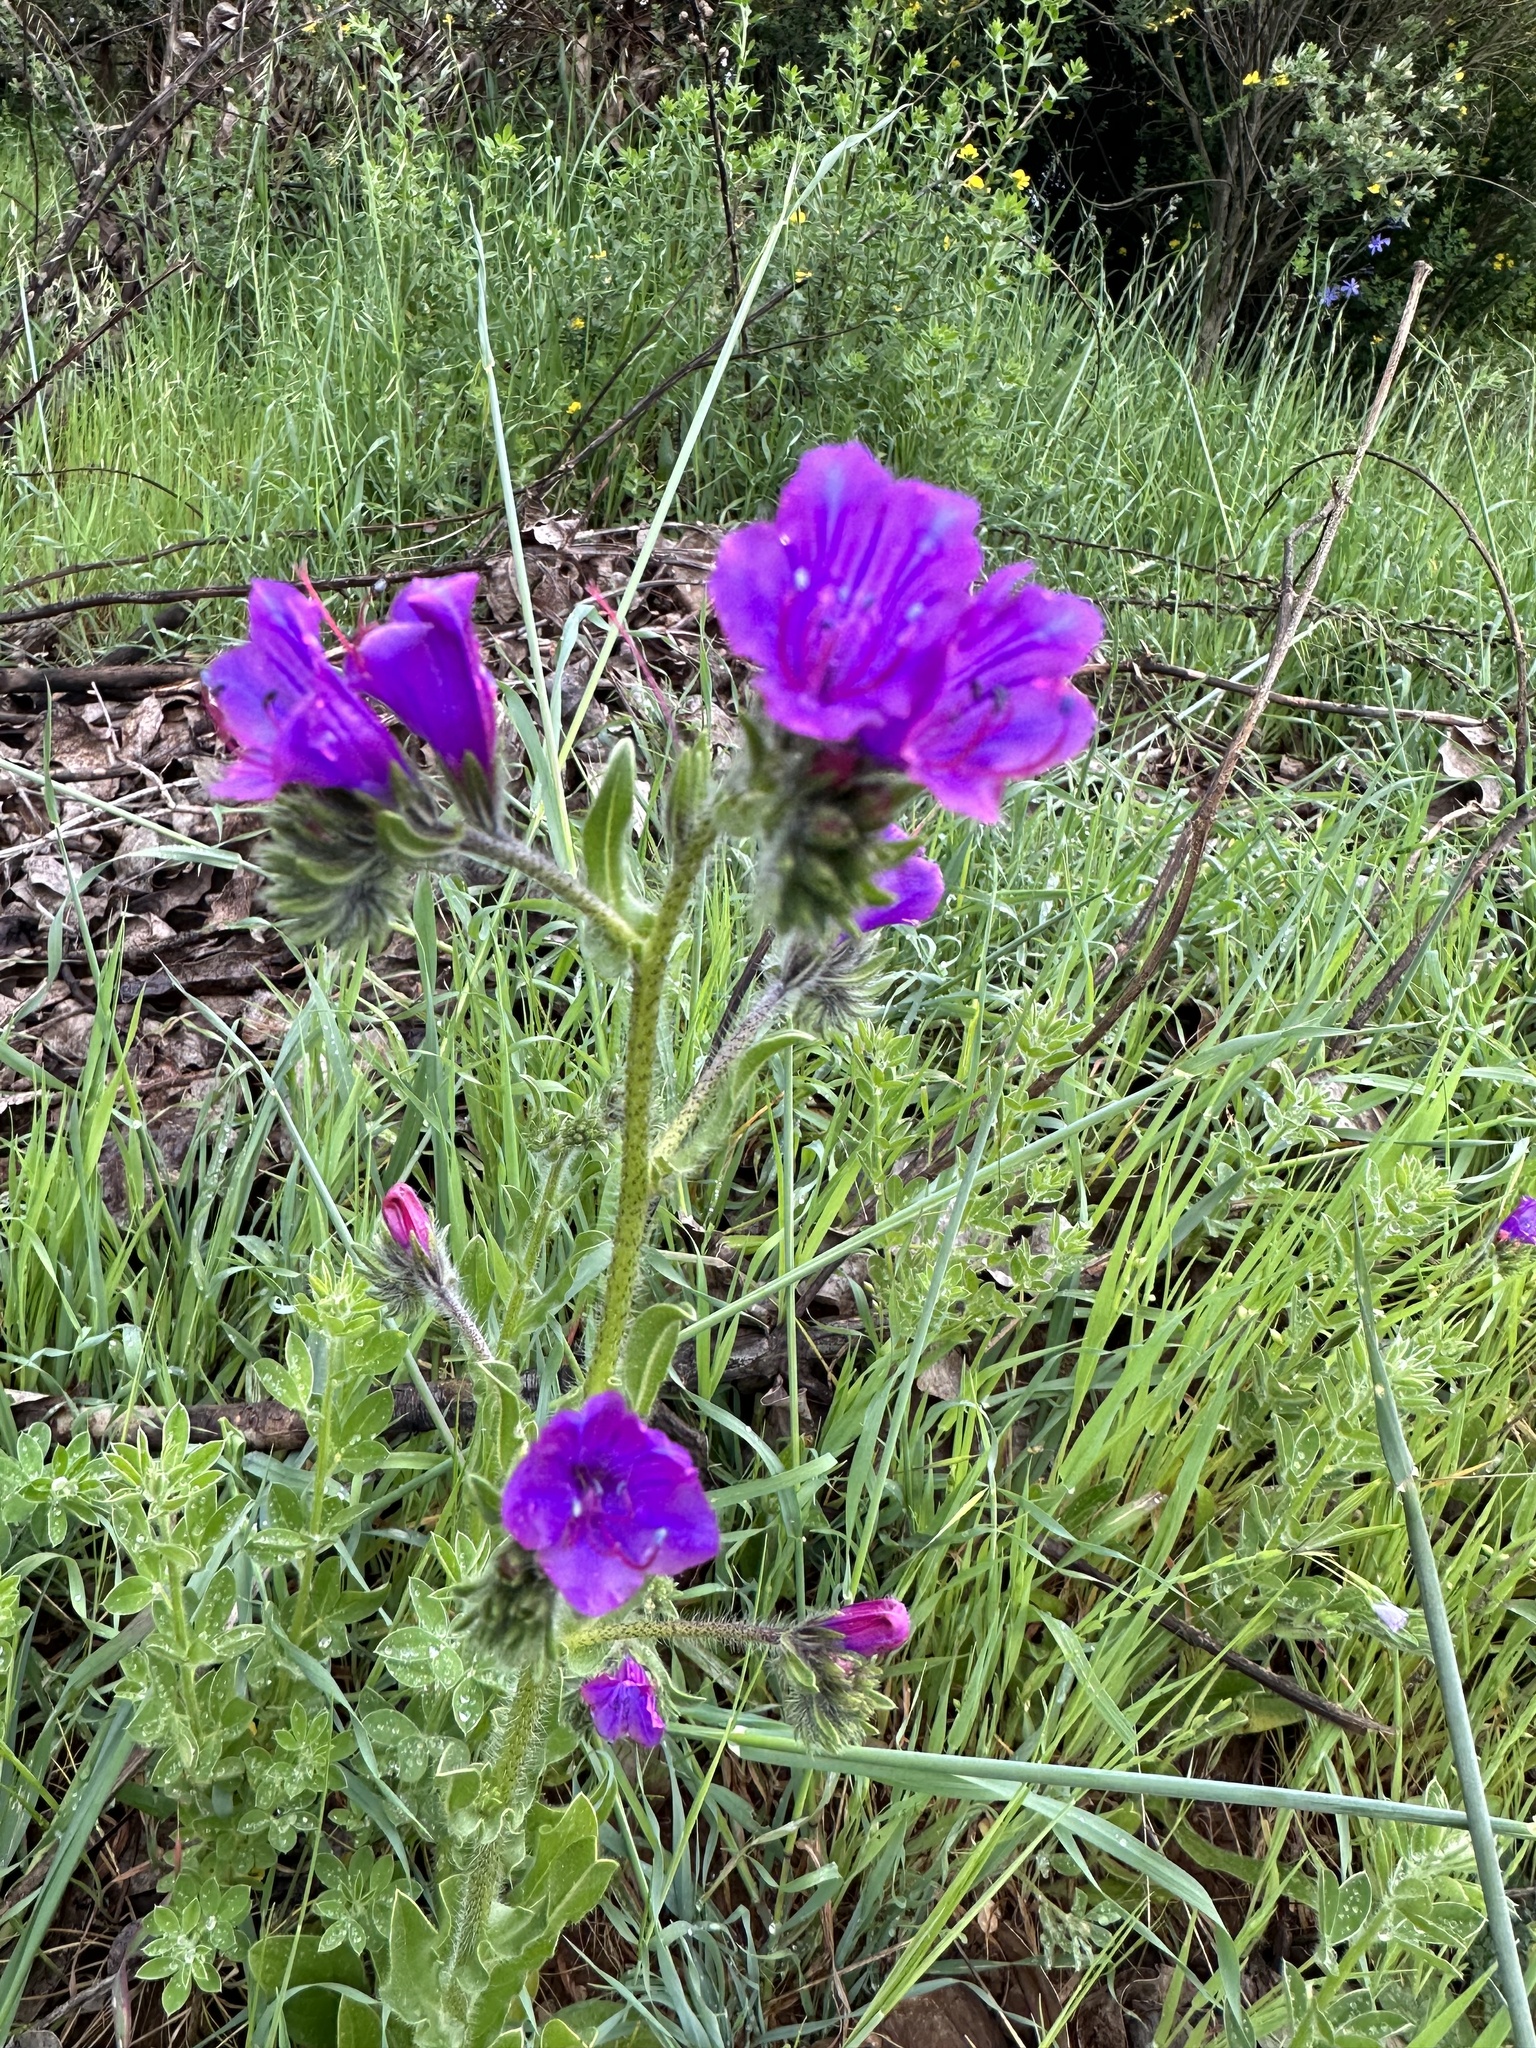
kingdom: Plantae
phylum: Tracheophyta
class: Magnoliopsida
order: Boraginales
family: Boraginaceae
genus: Echium
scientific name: Echium plantagineum
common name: Purple viper's-bugloss
